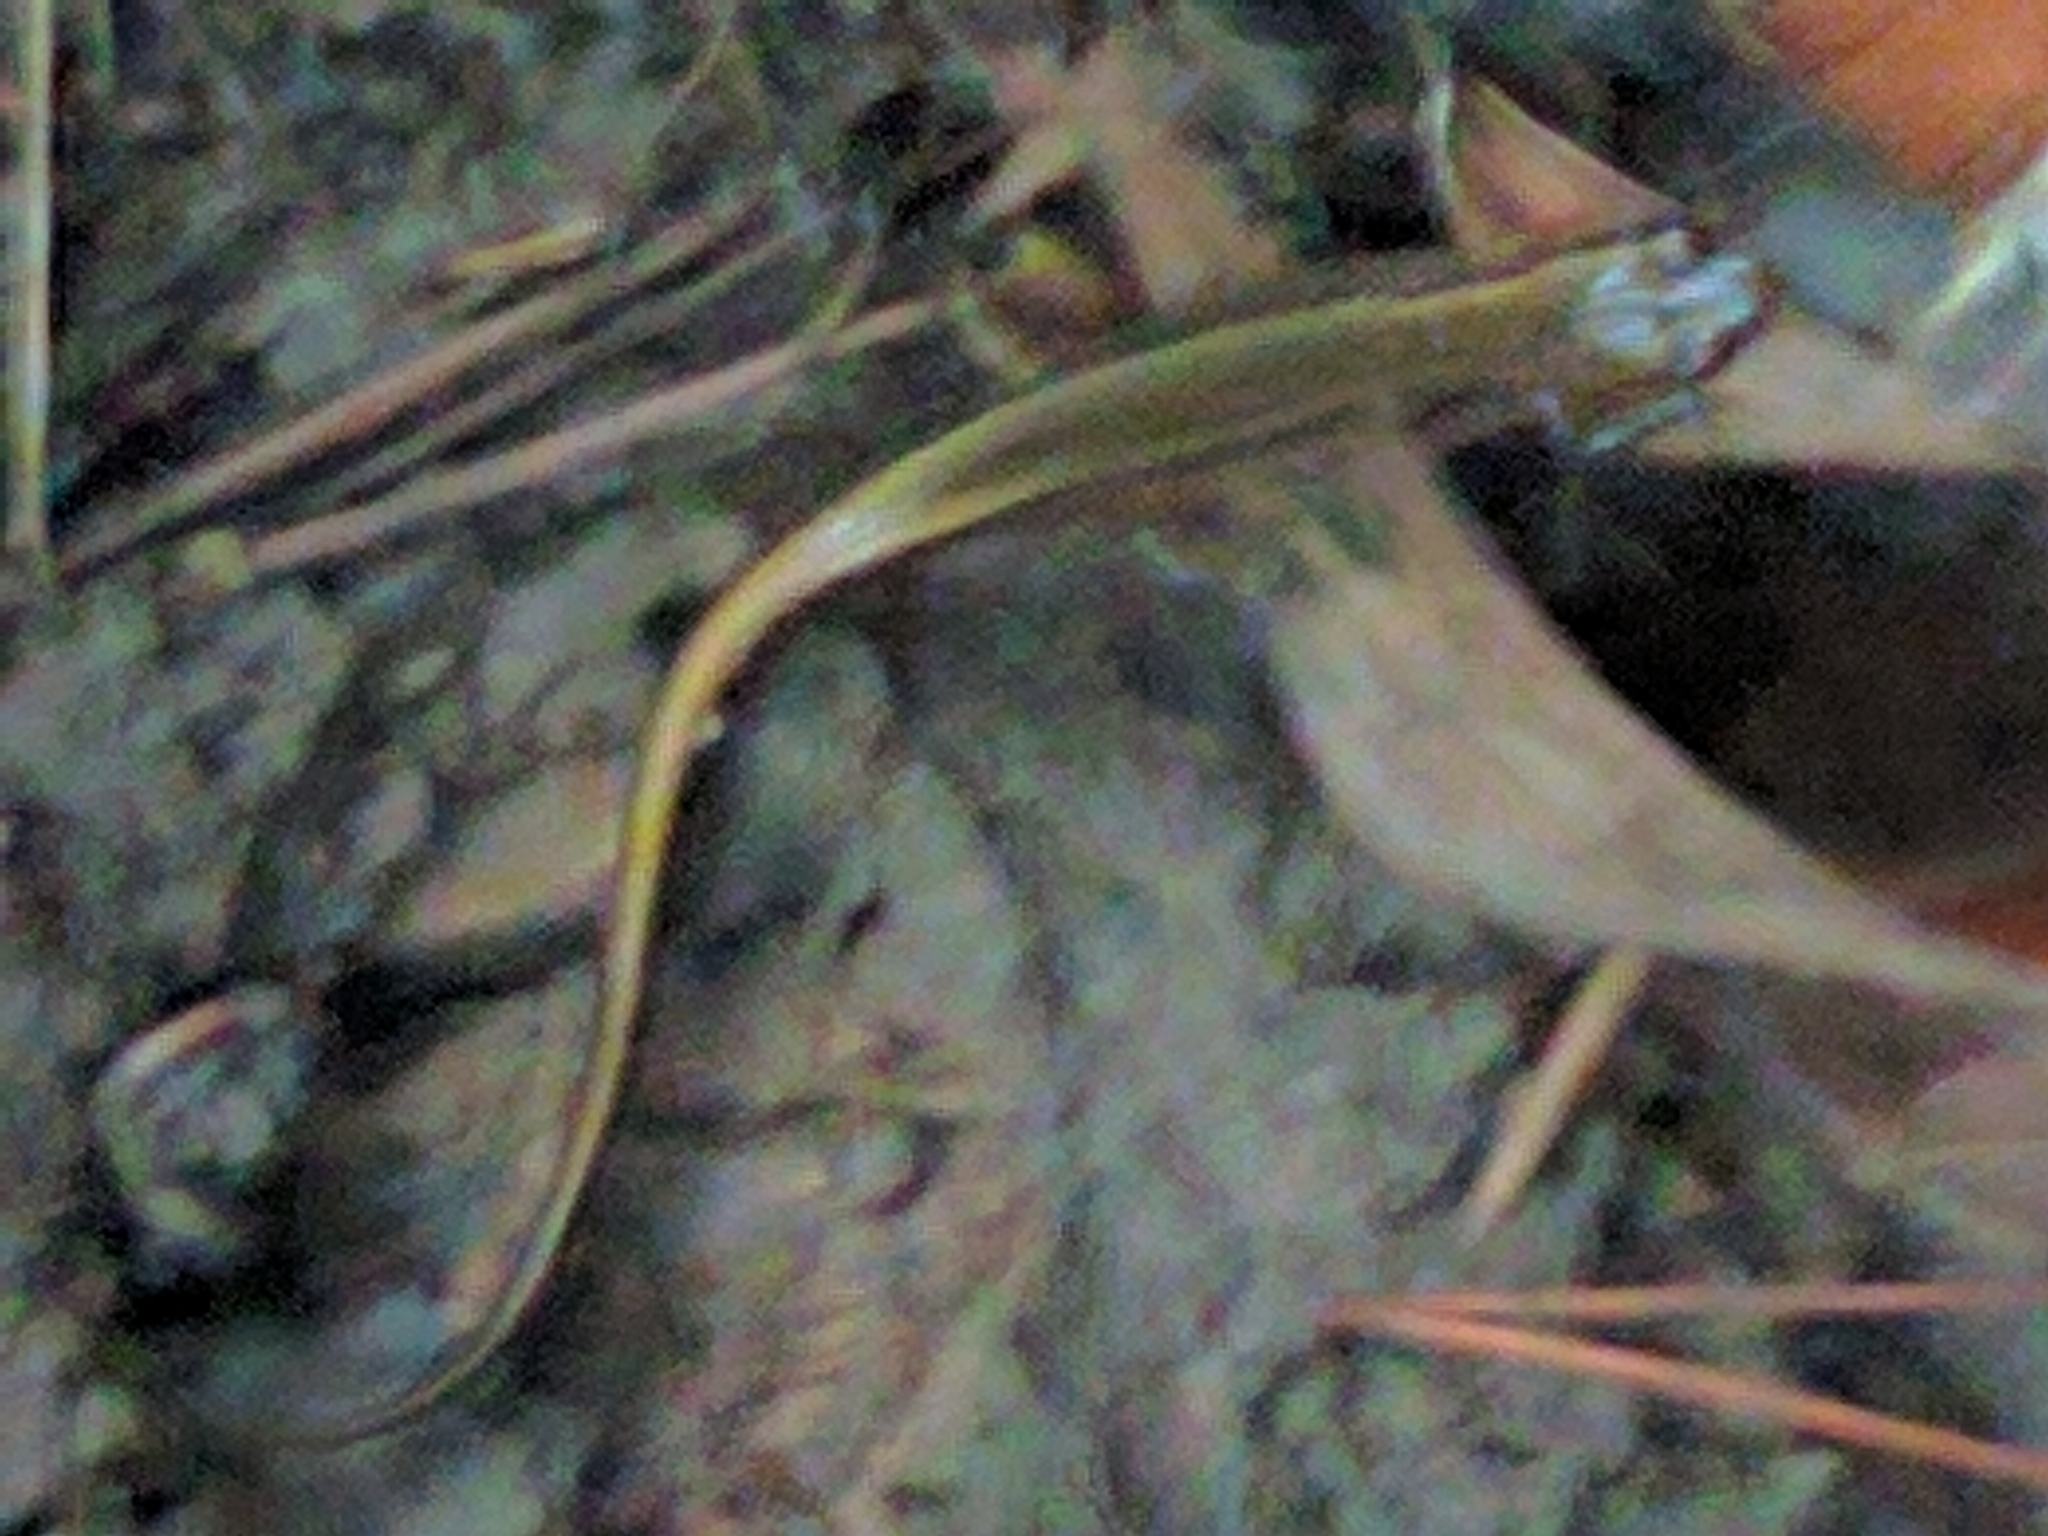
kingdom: Animalia
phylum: Chordata
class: Amphibia
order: Caudata
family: Plethodontidae
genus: Eurycea
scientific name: Eurycea bislineata
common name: Northern two-lined salamander
